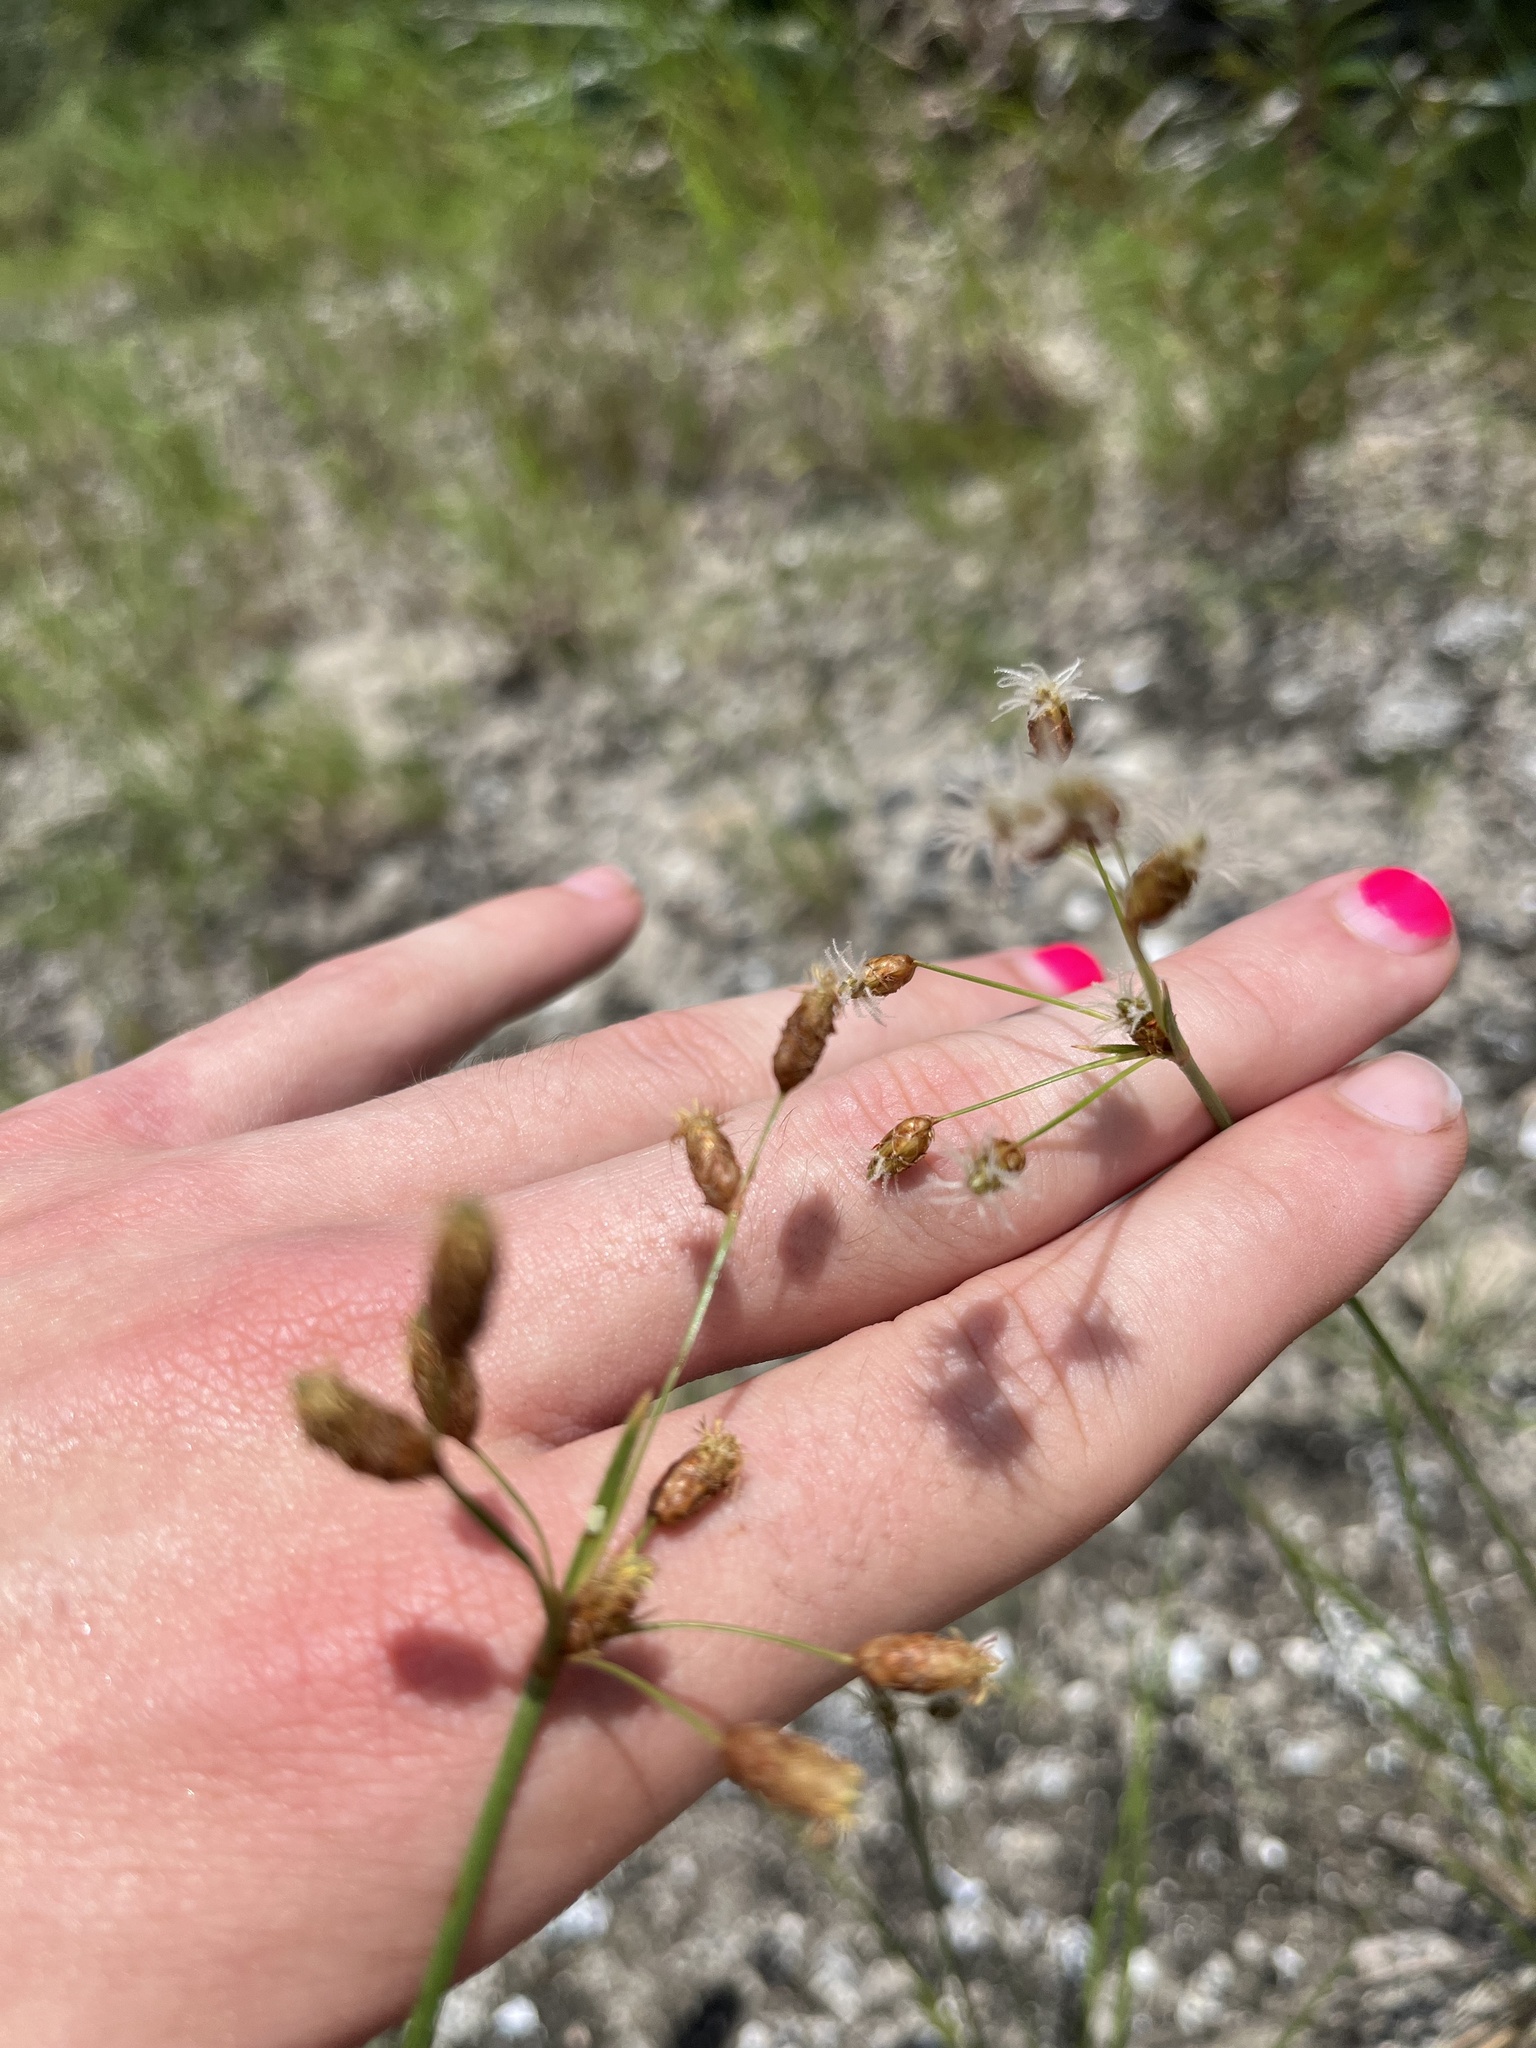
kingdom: Plantae
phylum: Tracheophyta
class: Liliopsida
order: Poales
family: Cyperaceae
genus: Fimbristylis
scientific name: Fimbristylis puberula
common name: Hairy fimbristylis
